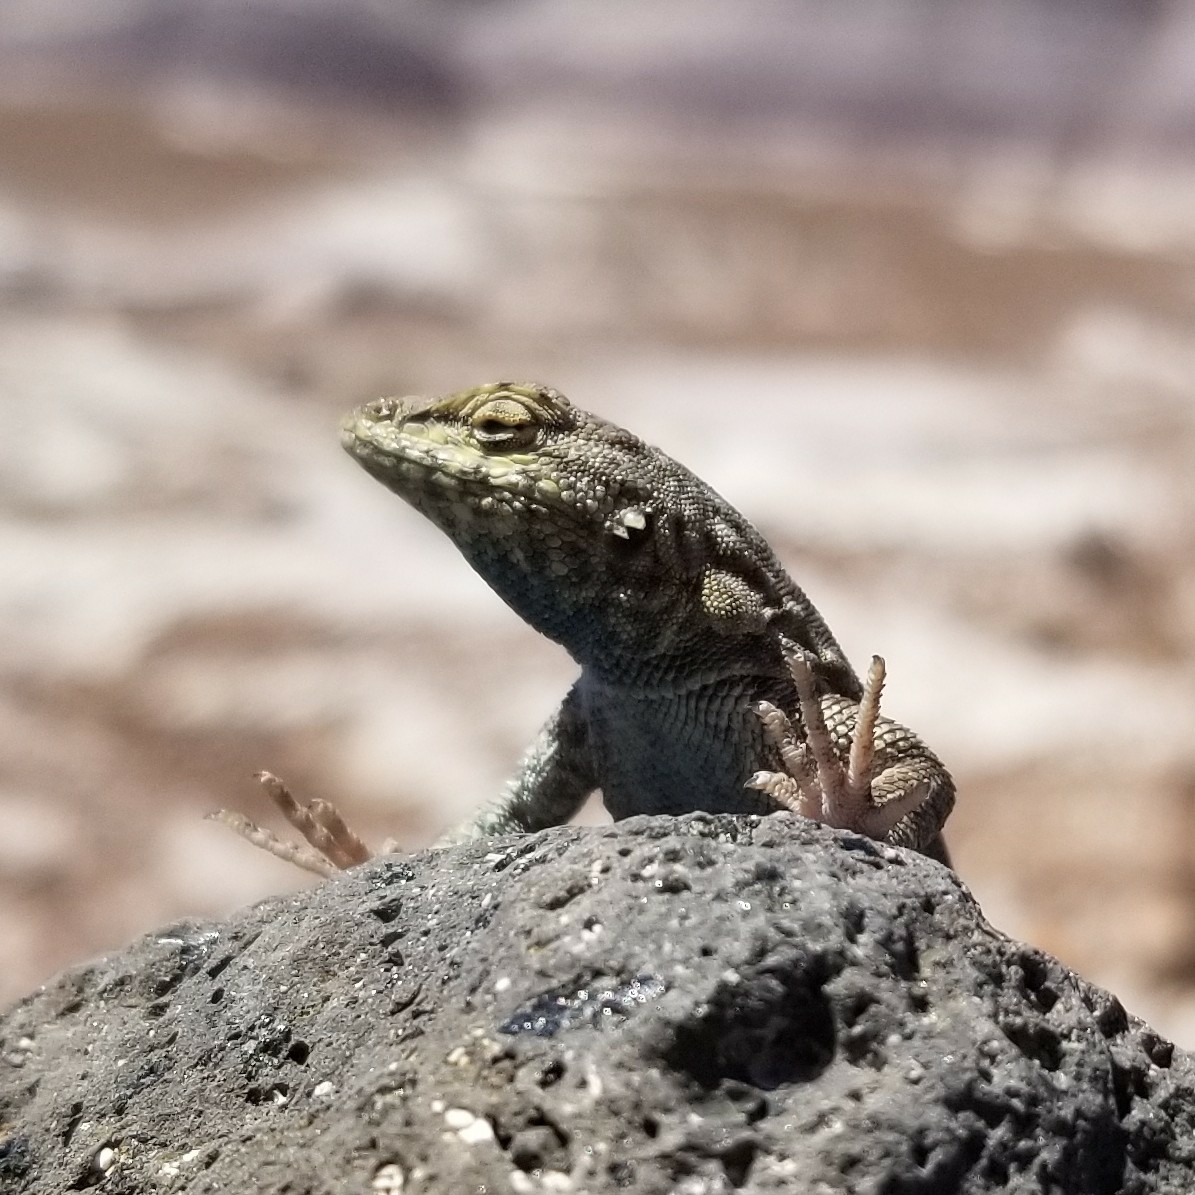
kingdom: Animalia
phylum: Chordata
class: Squamata
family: Phrynosomatidae
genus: Uta
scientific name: Uta stansburiana
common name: Side-blotched lizard
